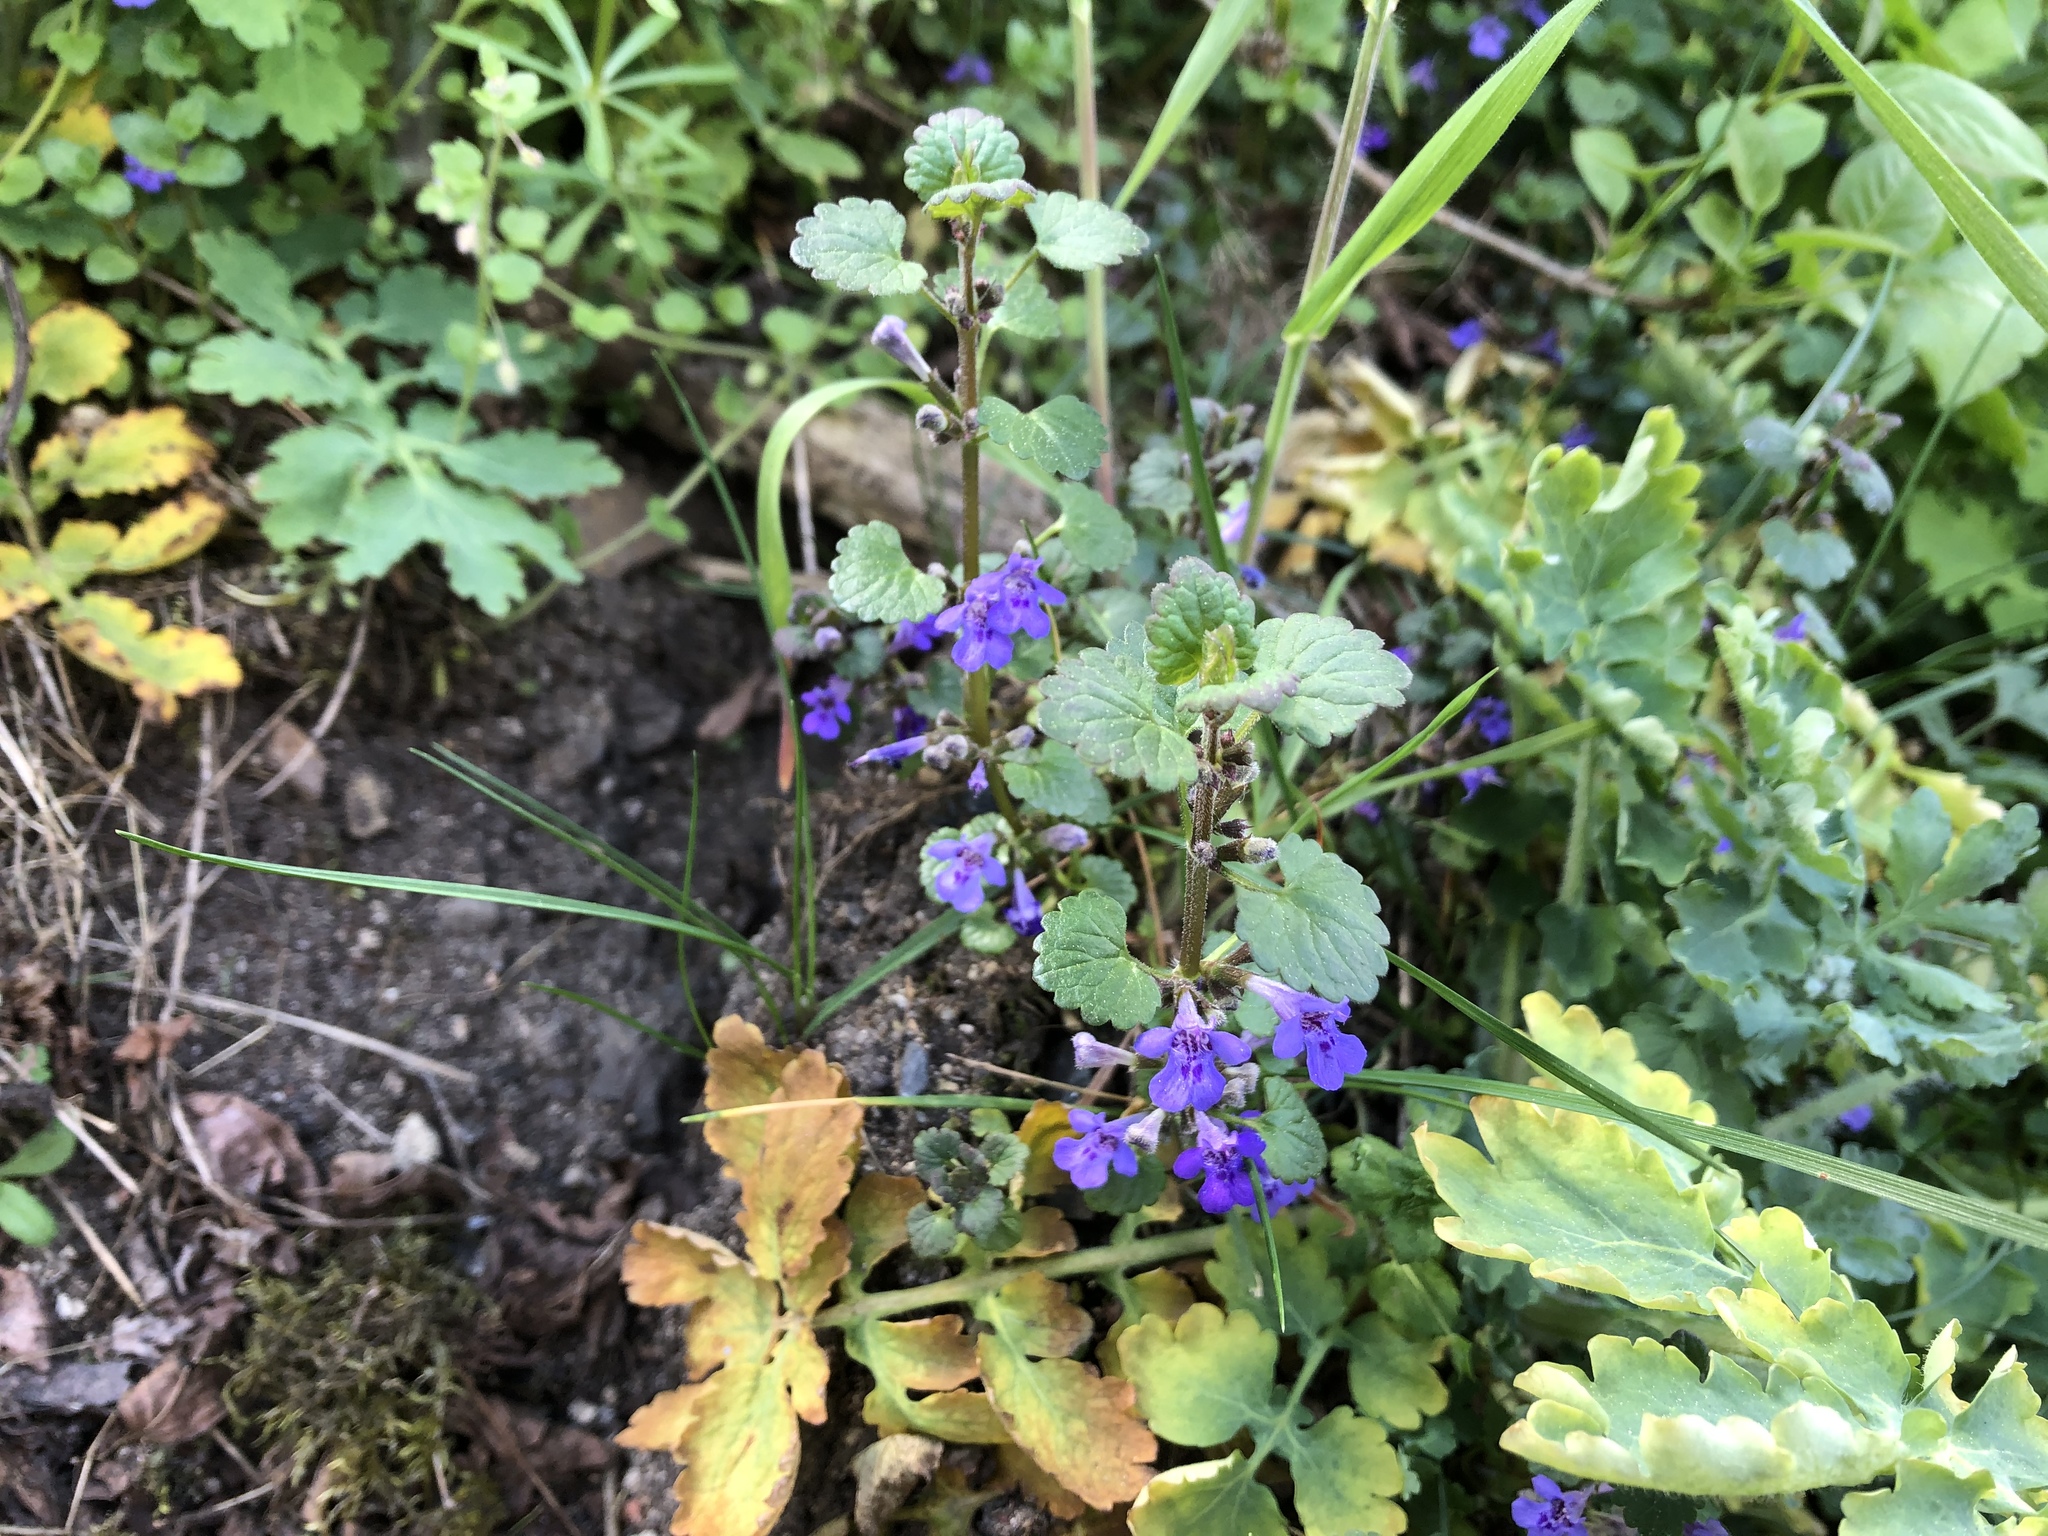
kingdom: Plantae
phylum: Tracheophyta
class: Magnoliopsida
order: Lamiales
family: Lamiaceae
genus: Glechoma
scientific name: Glechoma hederacea
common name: Ground ivy
